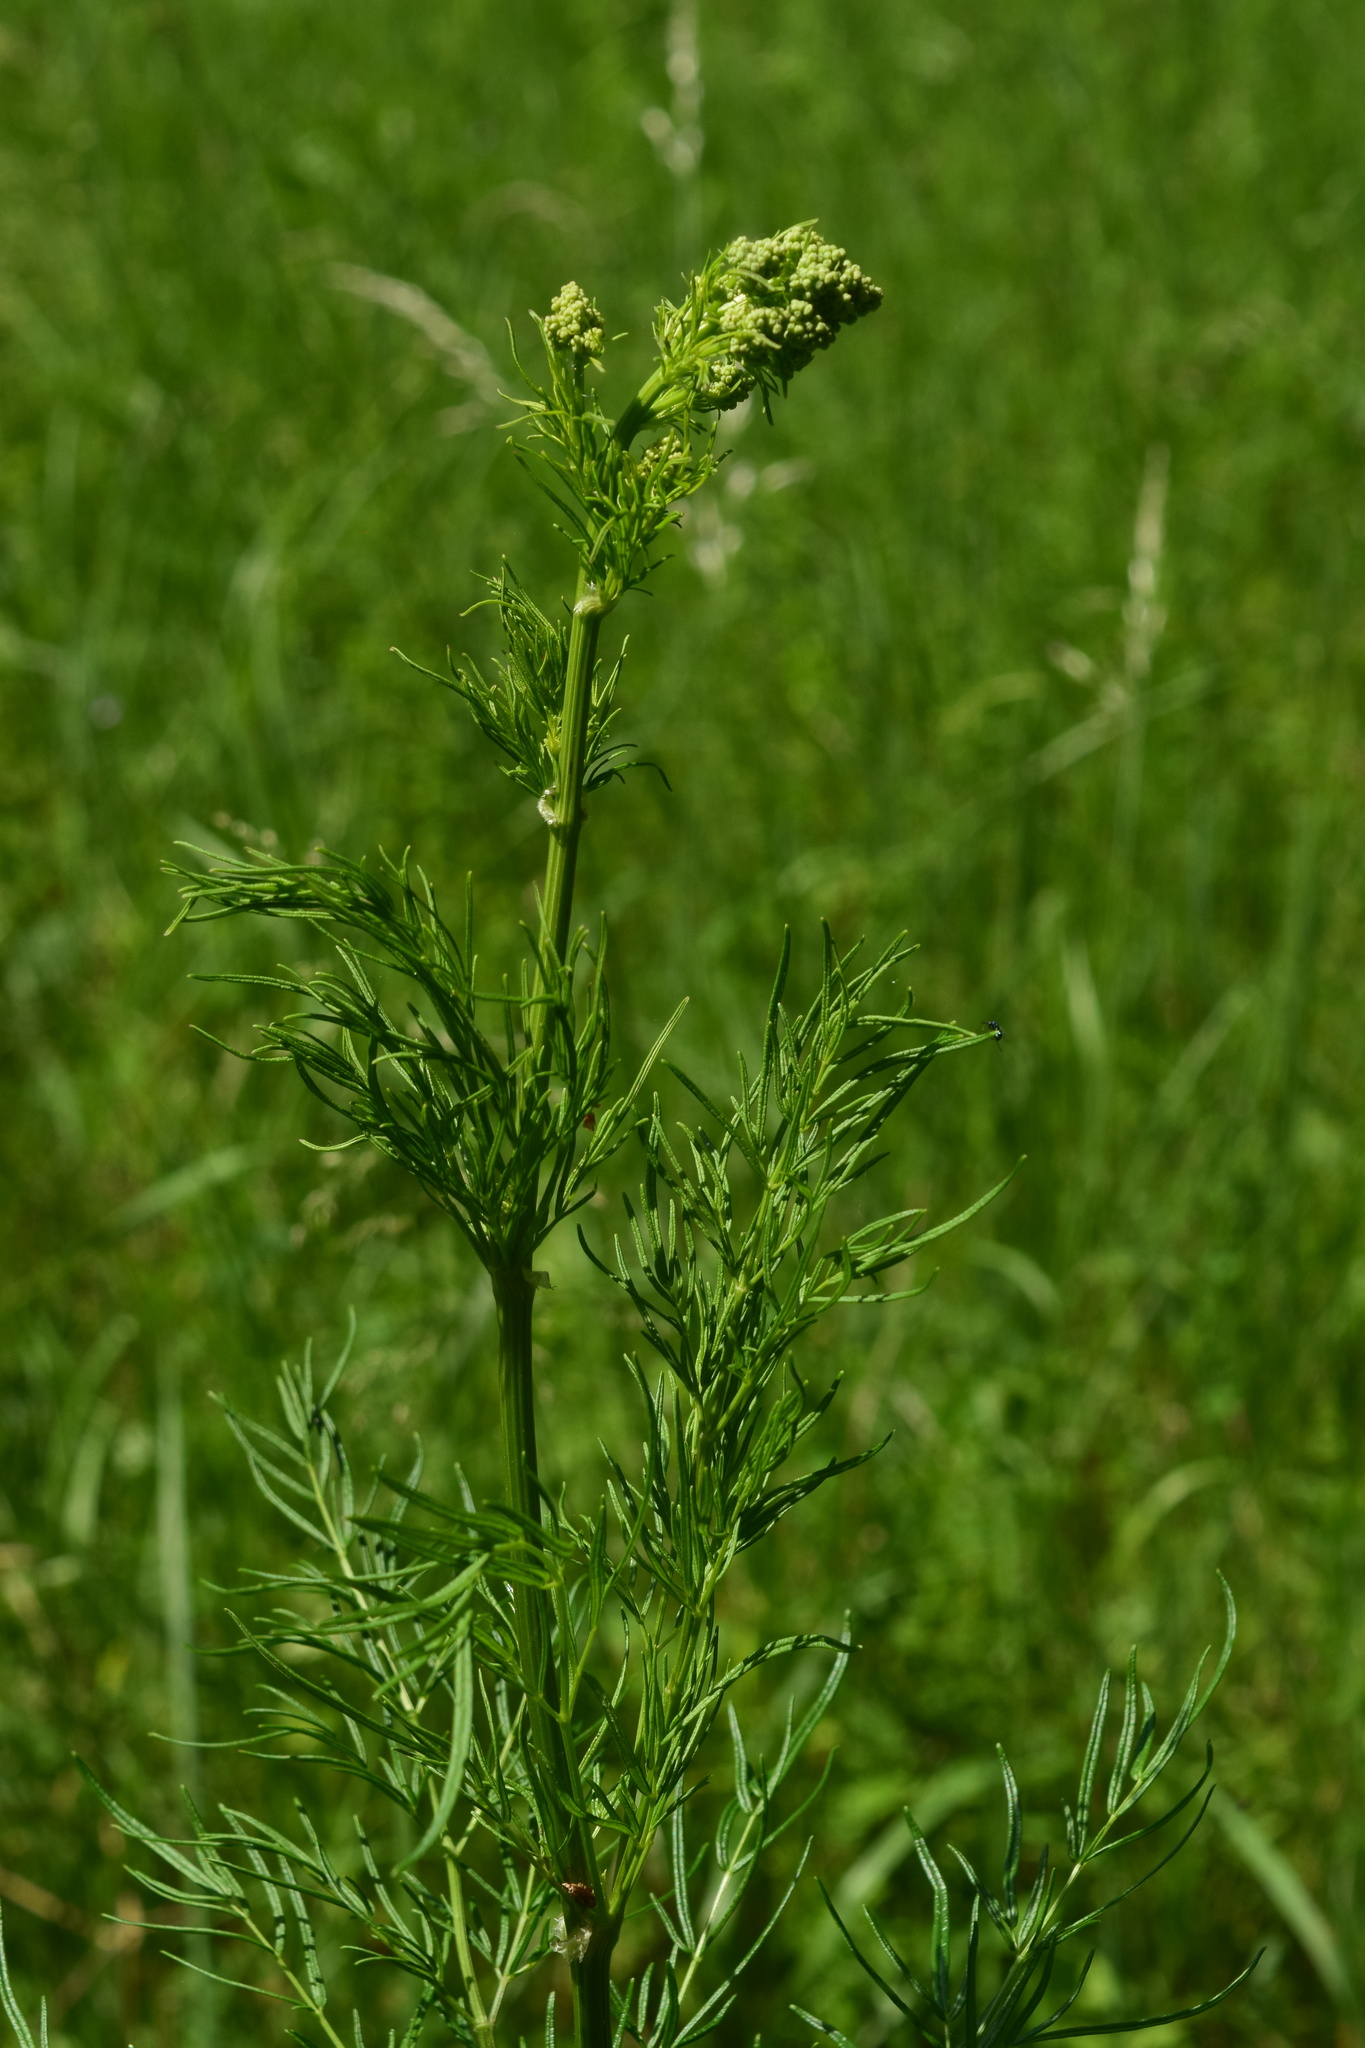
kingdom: Plantae
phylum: Tracheophyta
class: Magnoliopsida
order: Ranunculales
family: Ranunculaceae
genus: Thalictrum
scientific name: Thalictrum lucidum
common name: Shining meadow-rue
